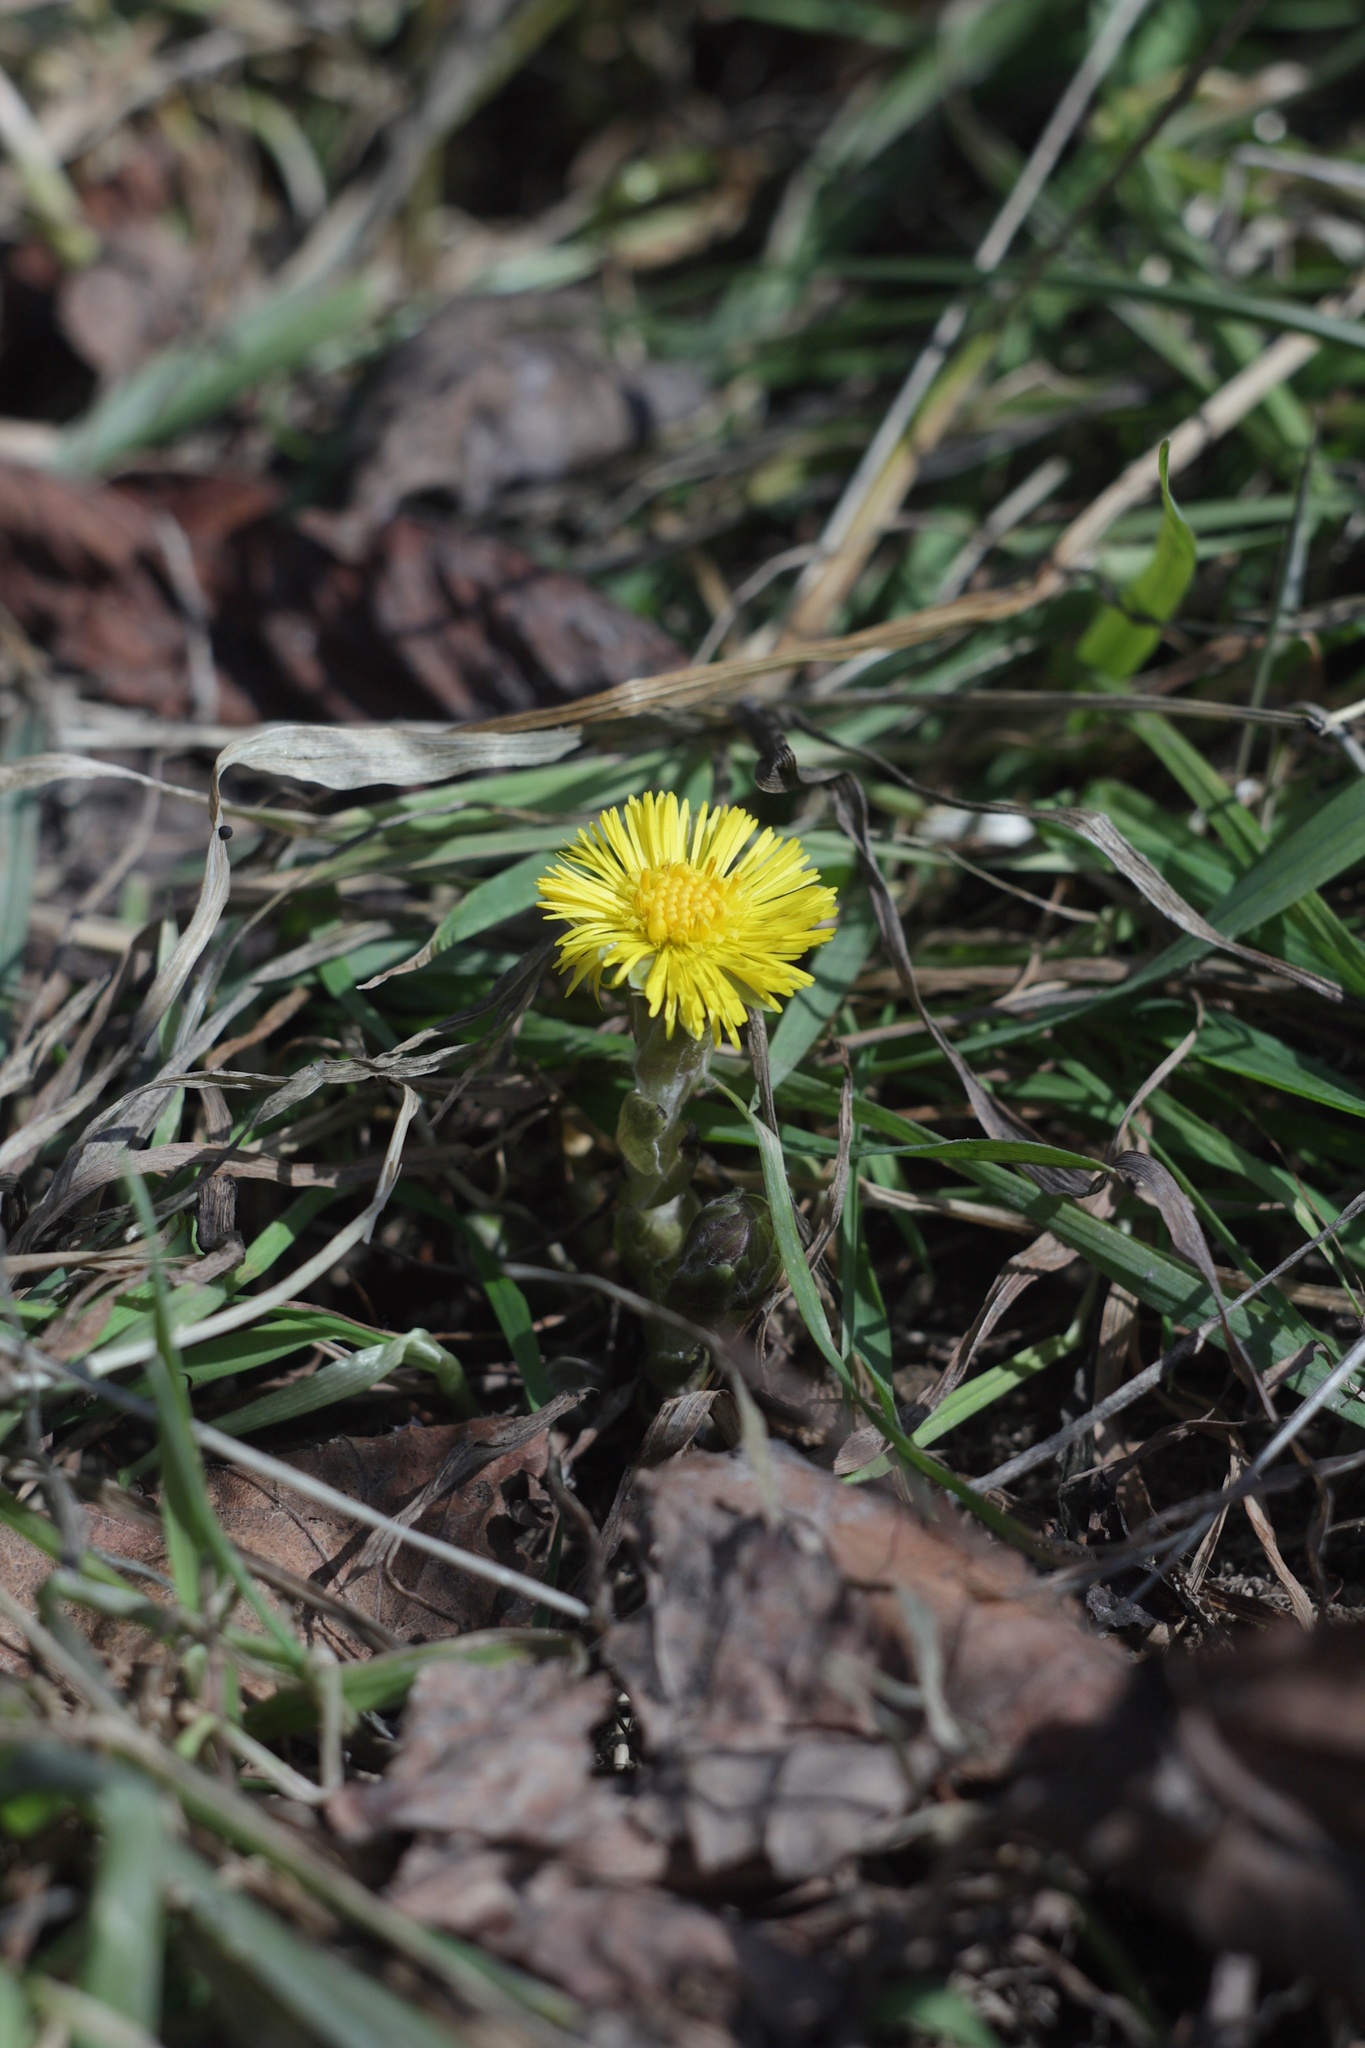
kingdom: Plantae
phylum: Tracheophyta
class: Magnoliopsida
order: Asterales
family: Asteraceae
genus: Tussilago
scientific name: Tussilago farfara
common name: Coltsfoot
